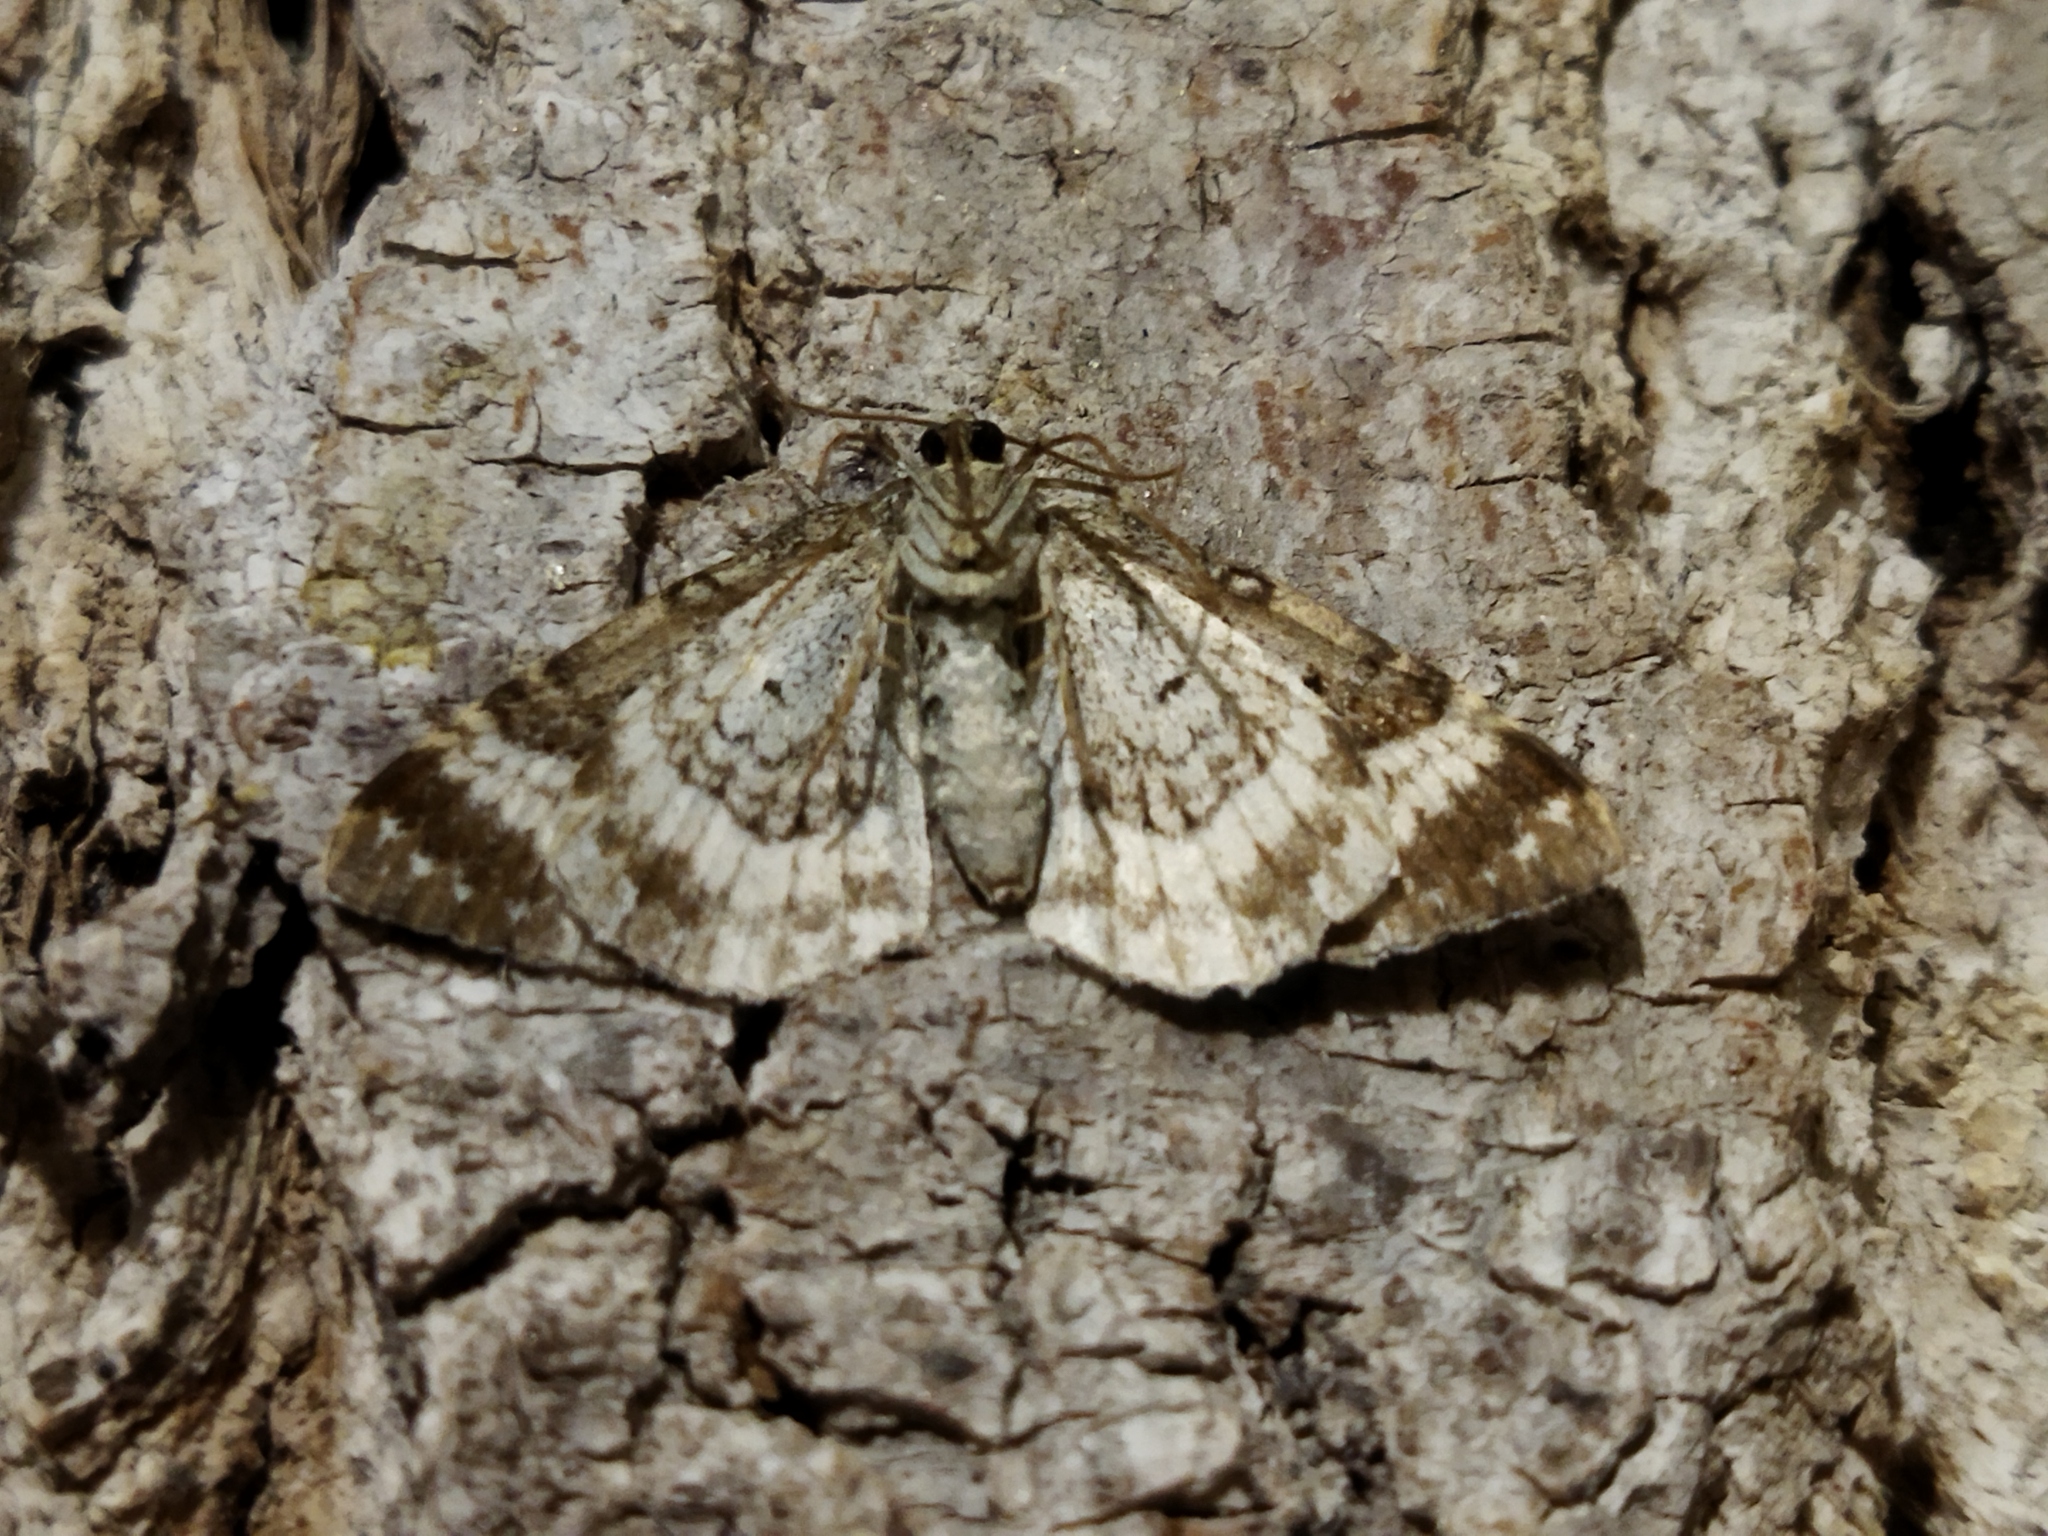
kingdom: Animalia
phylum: Arthropoda
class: Insecta
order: Lepidoptera
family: Geometridae
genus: Epirrhoe
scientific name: Epirrhoe alternata
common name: Common carpet
